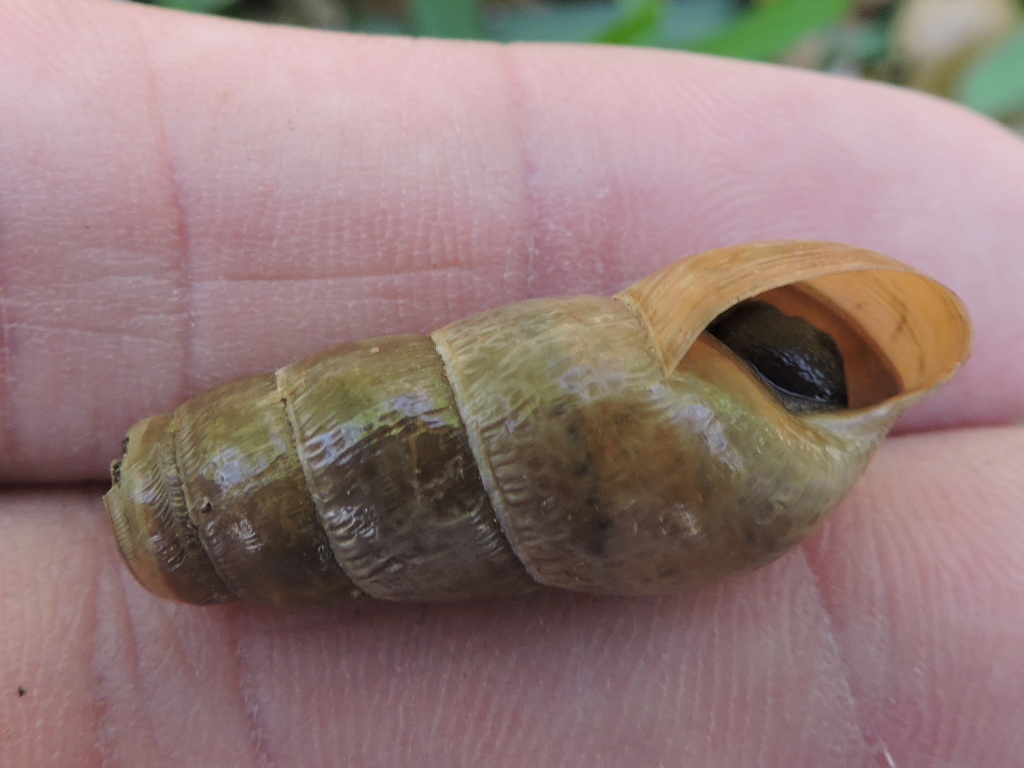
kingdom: Animalia
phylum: Mollusca
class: Gastropoda
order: Stylommatophora
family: Achatinidae
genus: Rumina
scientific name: Rumina decollata
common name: Decollate snail
